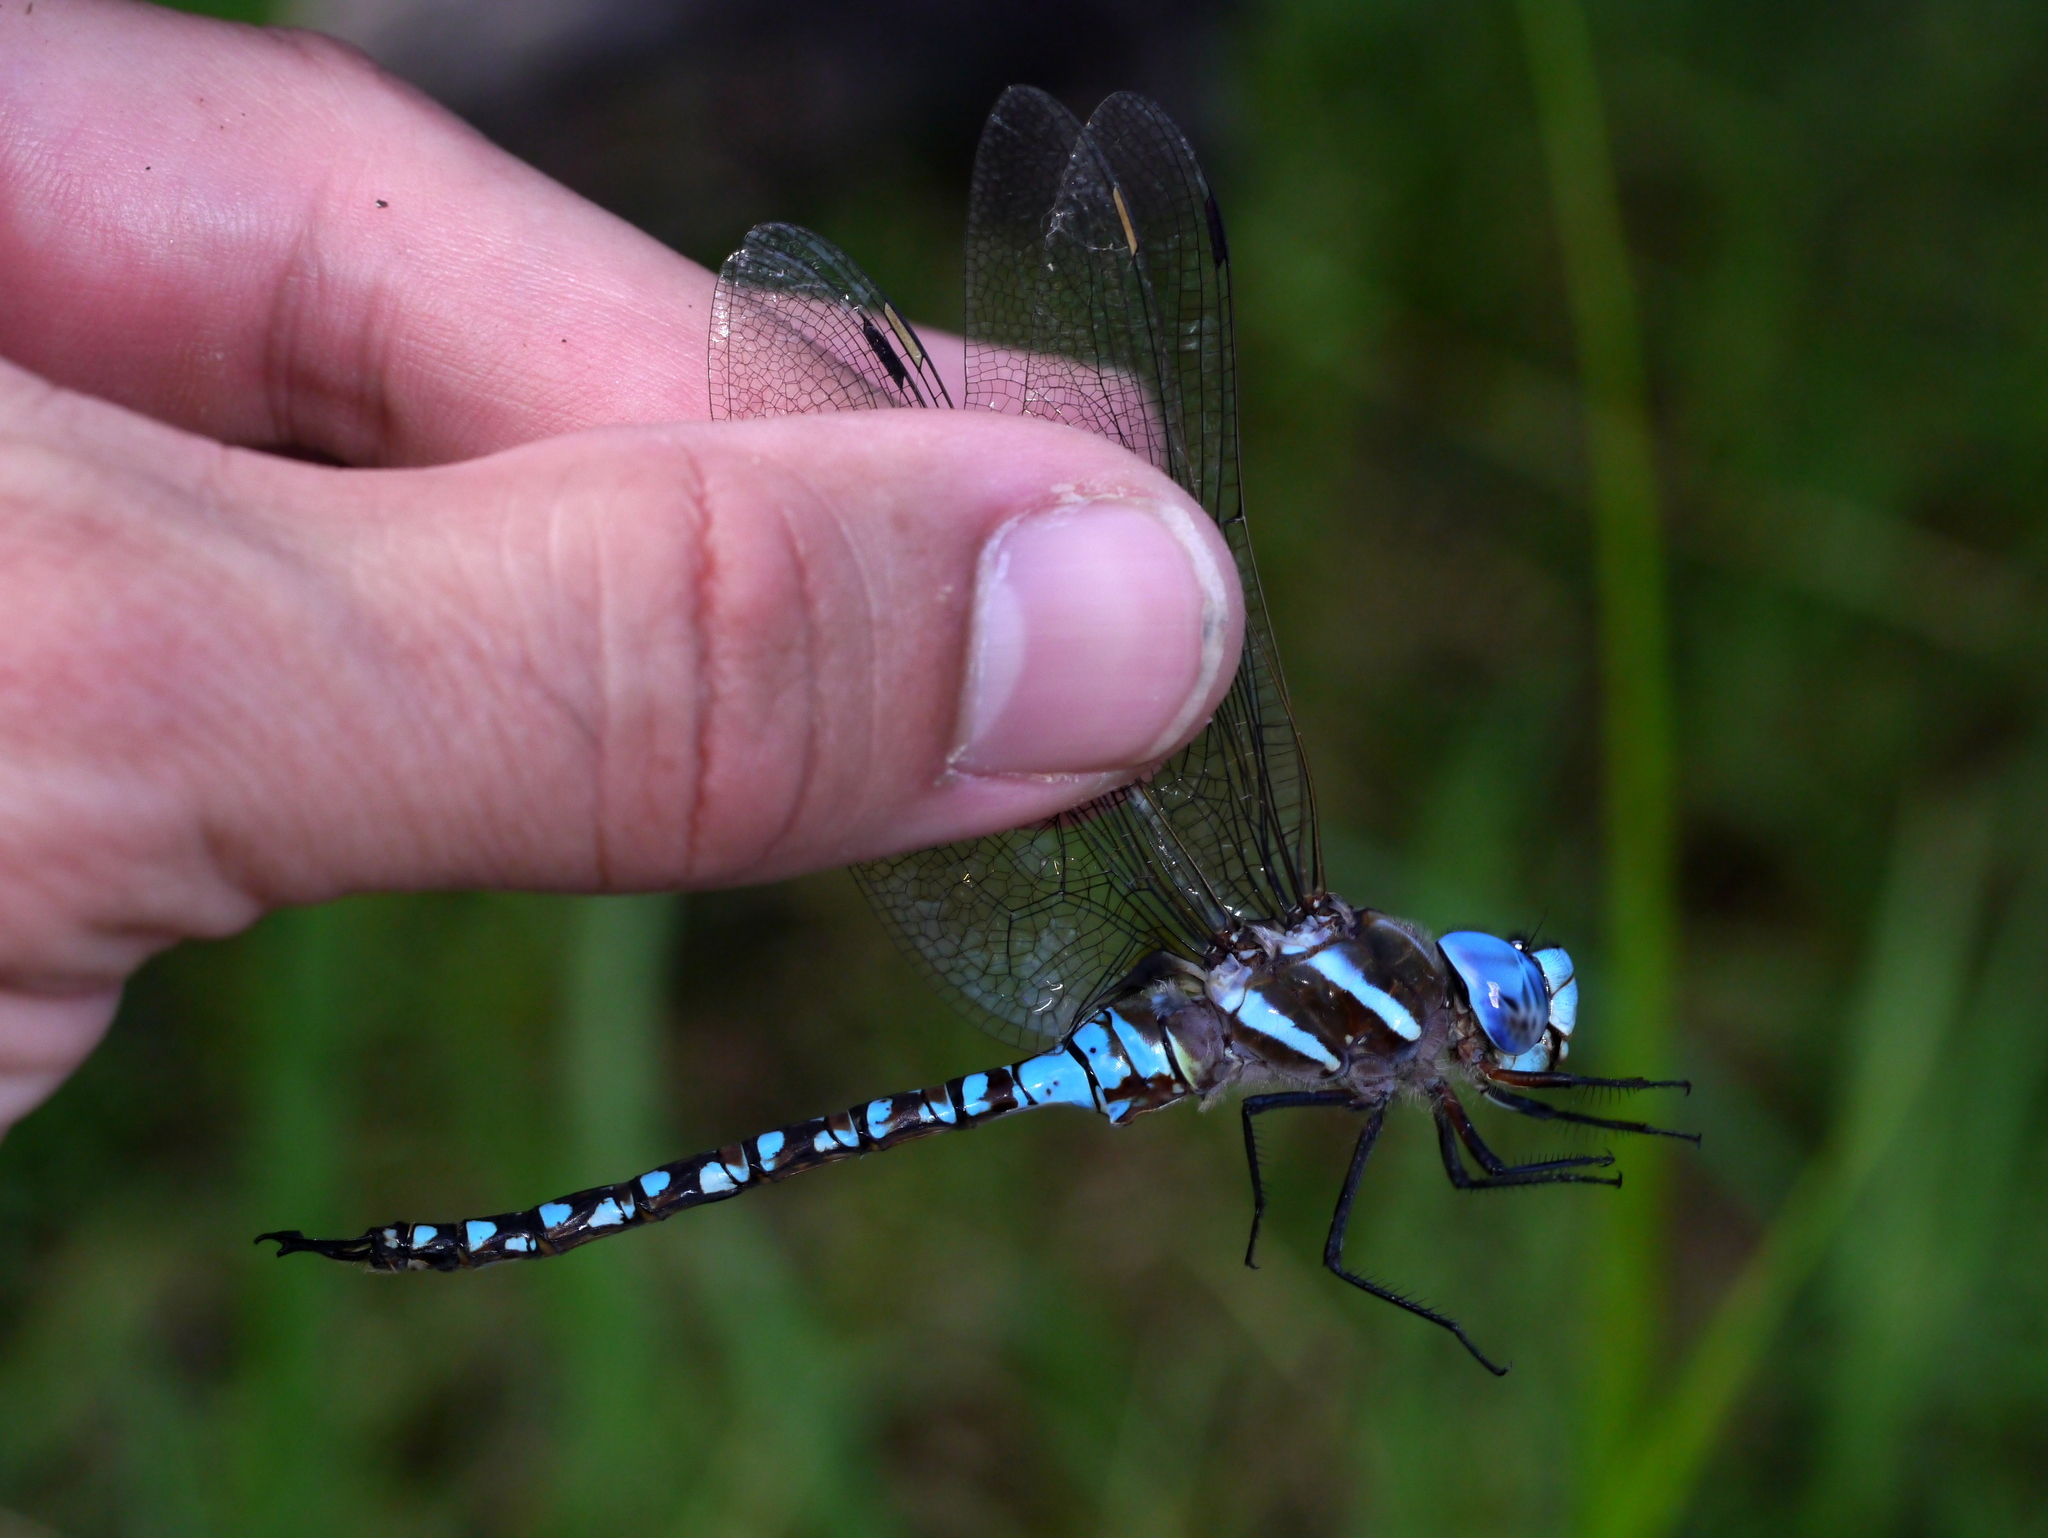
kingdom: Animalia
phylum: Arthropoda
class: Insecta
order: Odonata
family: Aeshnidae
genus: Rhionaeschna
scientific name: Rhionaeschna multicolor
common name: Blue-eyed darner
